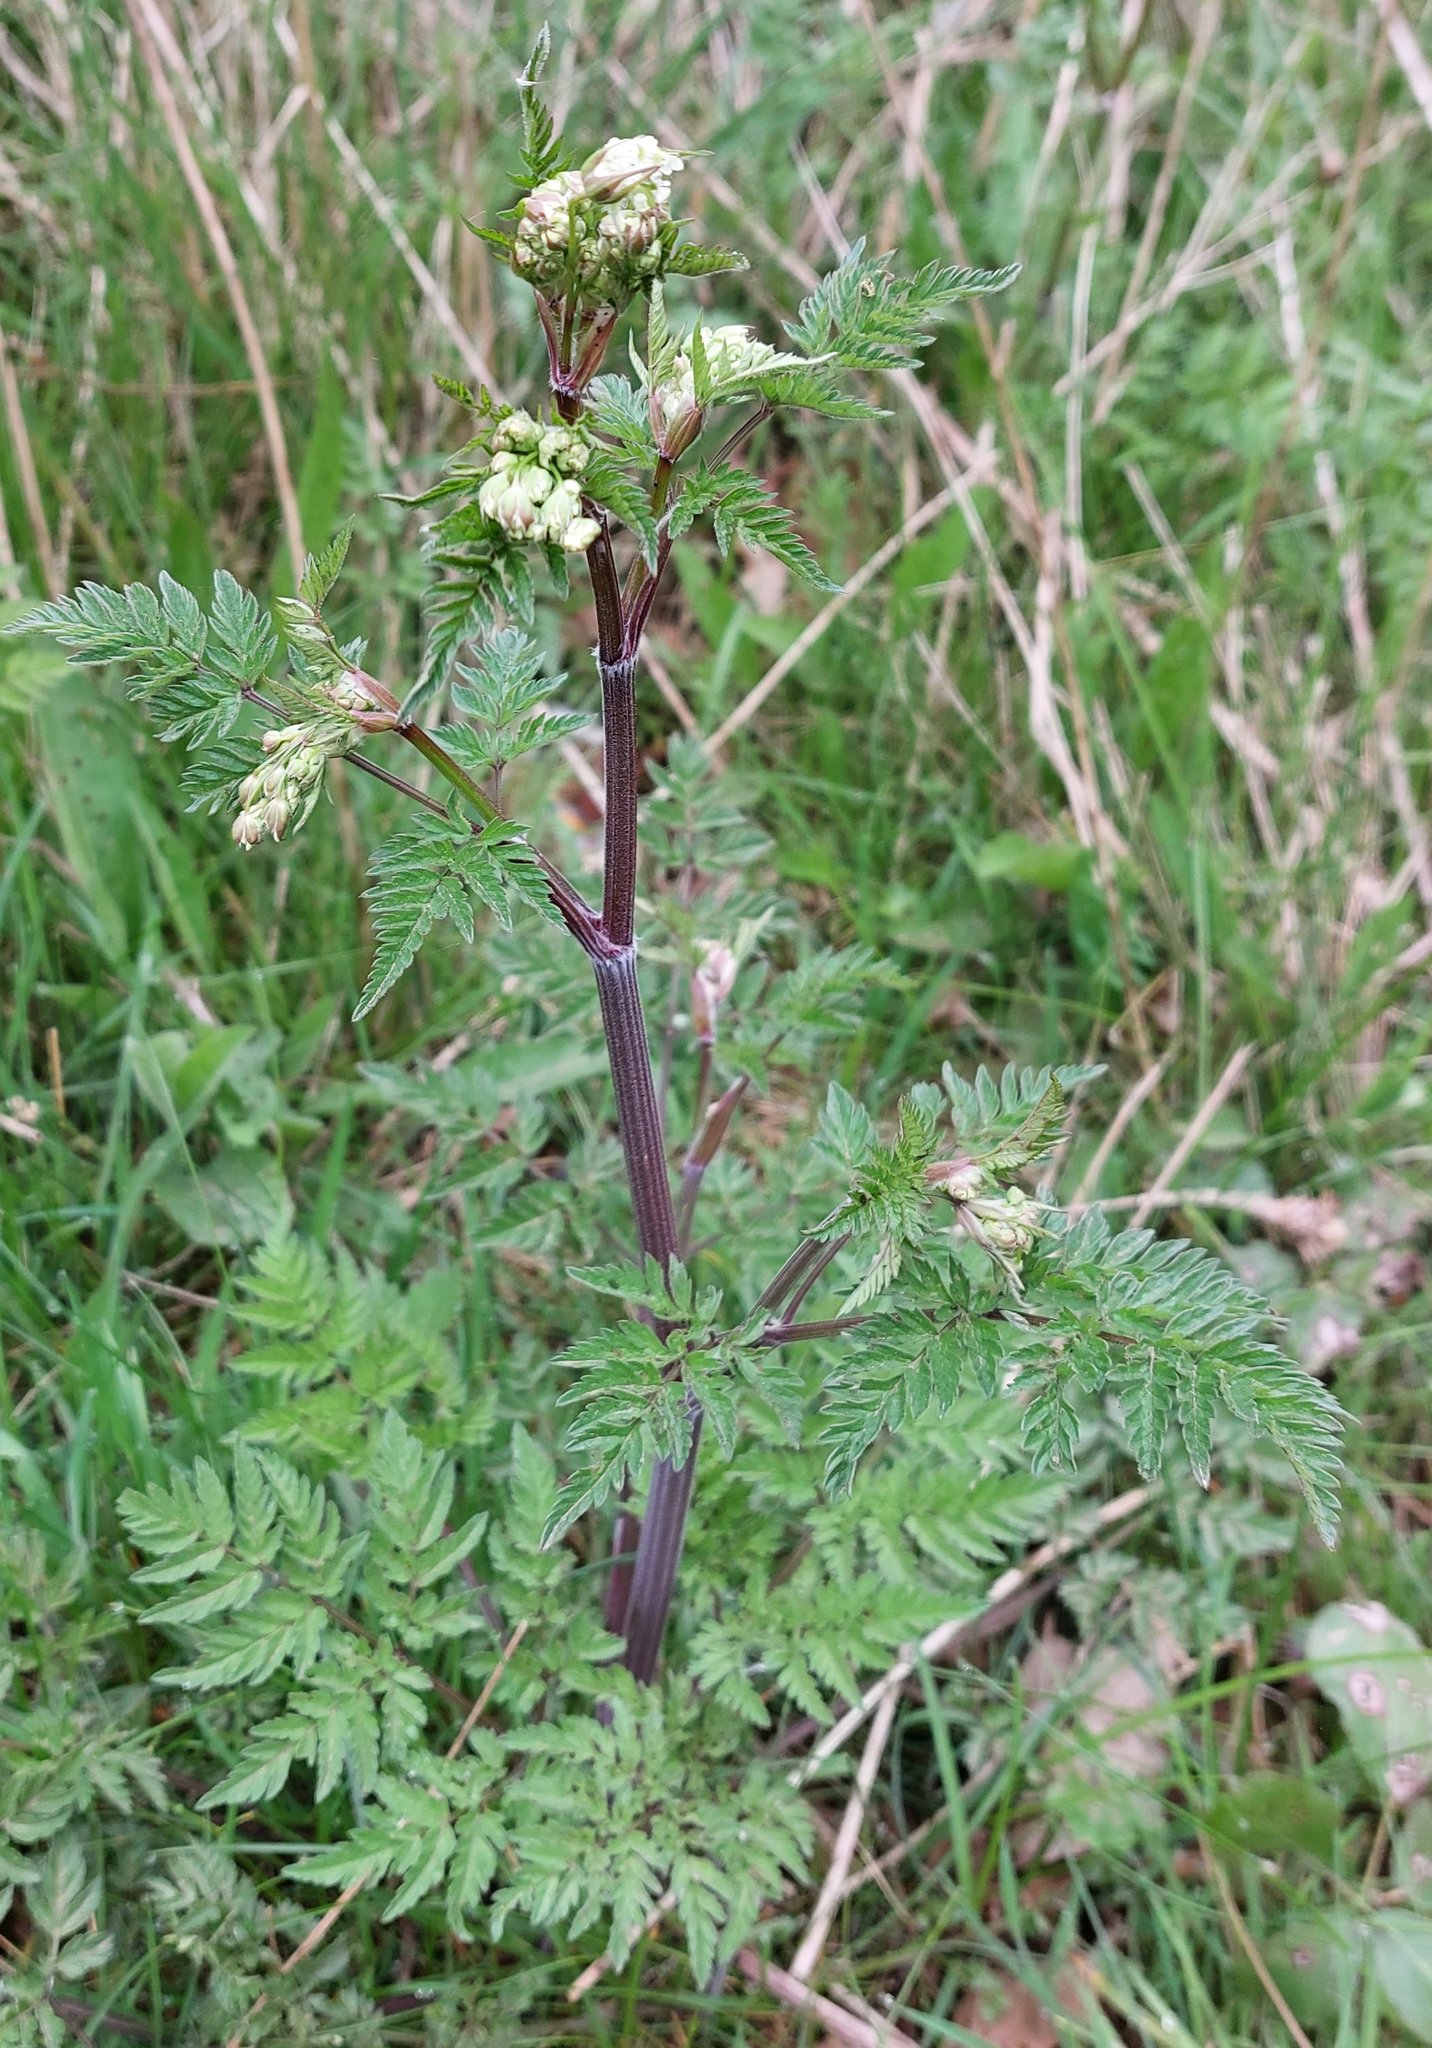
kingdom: Plantae
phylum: Tracheophyta
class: Magnoliopsida
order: Apiales
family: Apiaceae
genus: Anthriscus
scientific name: Anthriscus sylvestris
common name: Cow parsley
